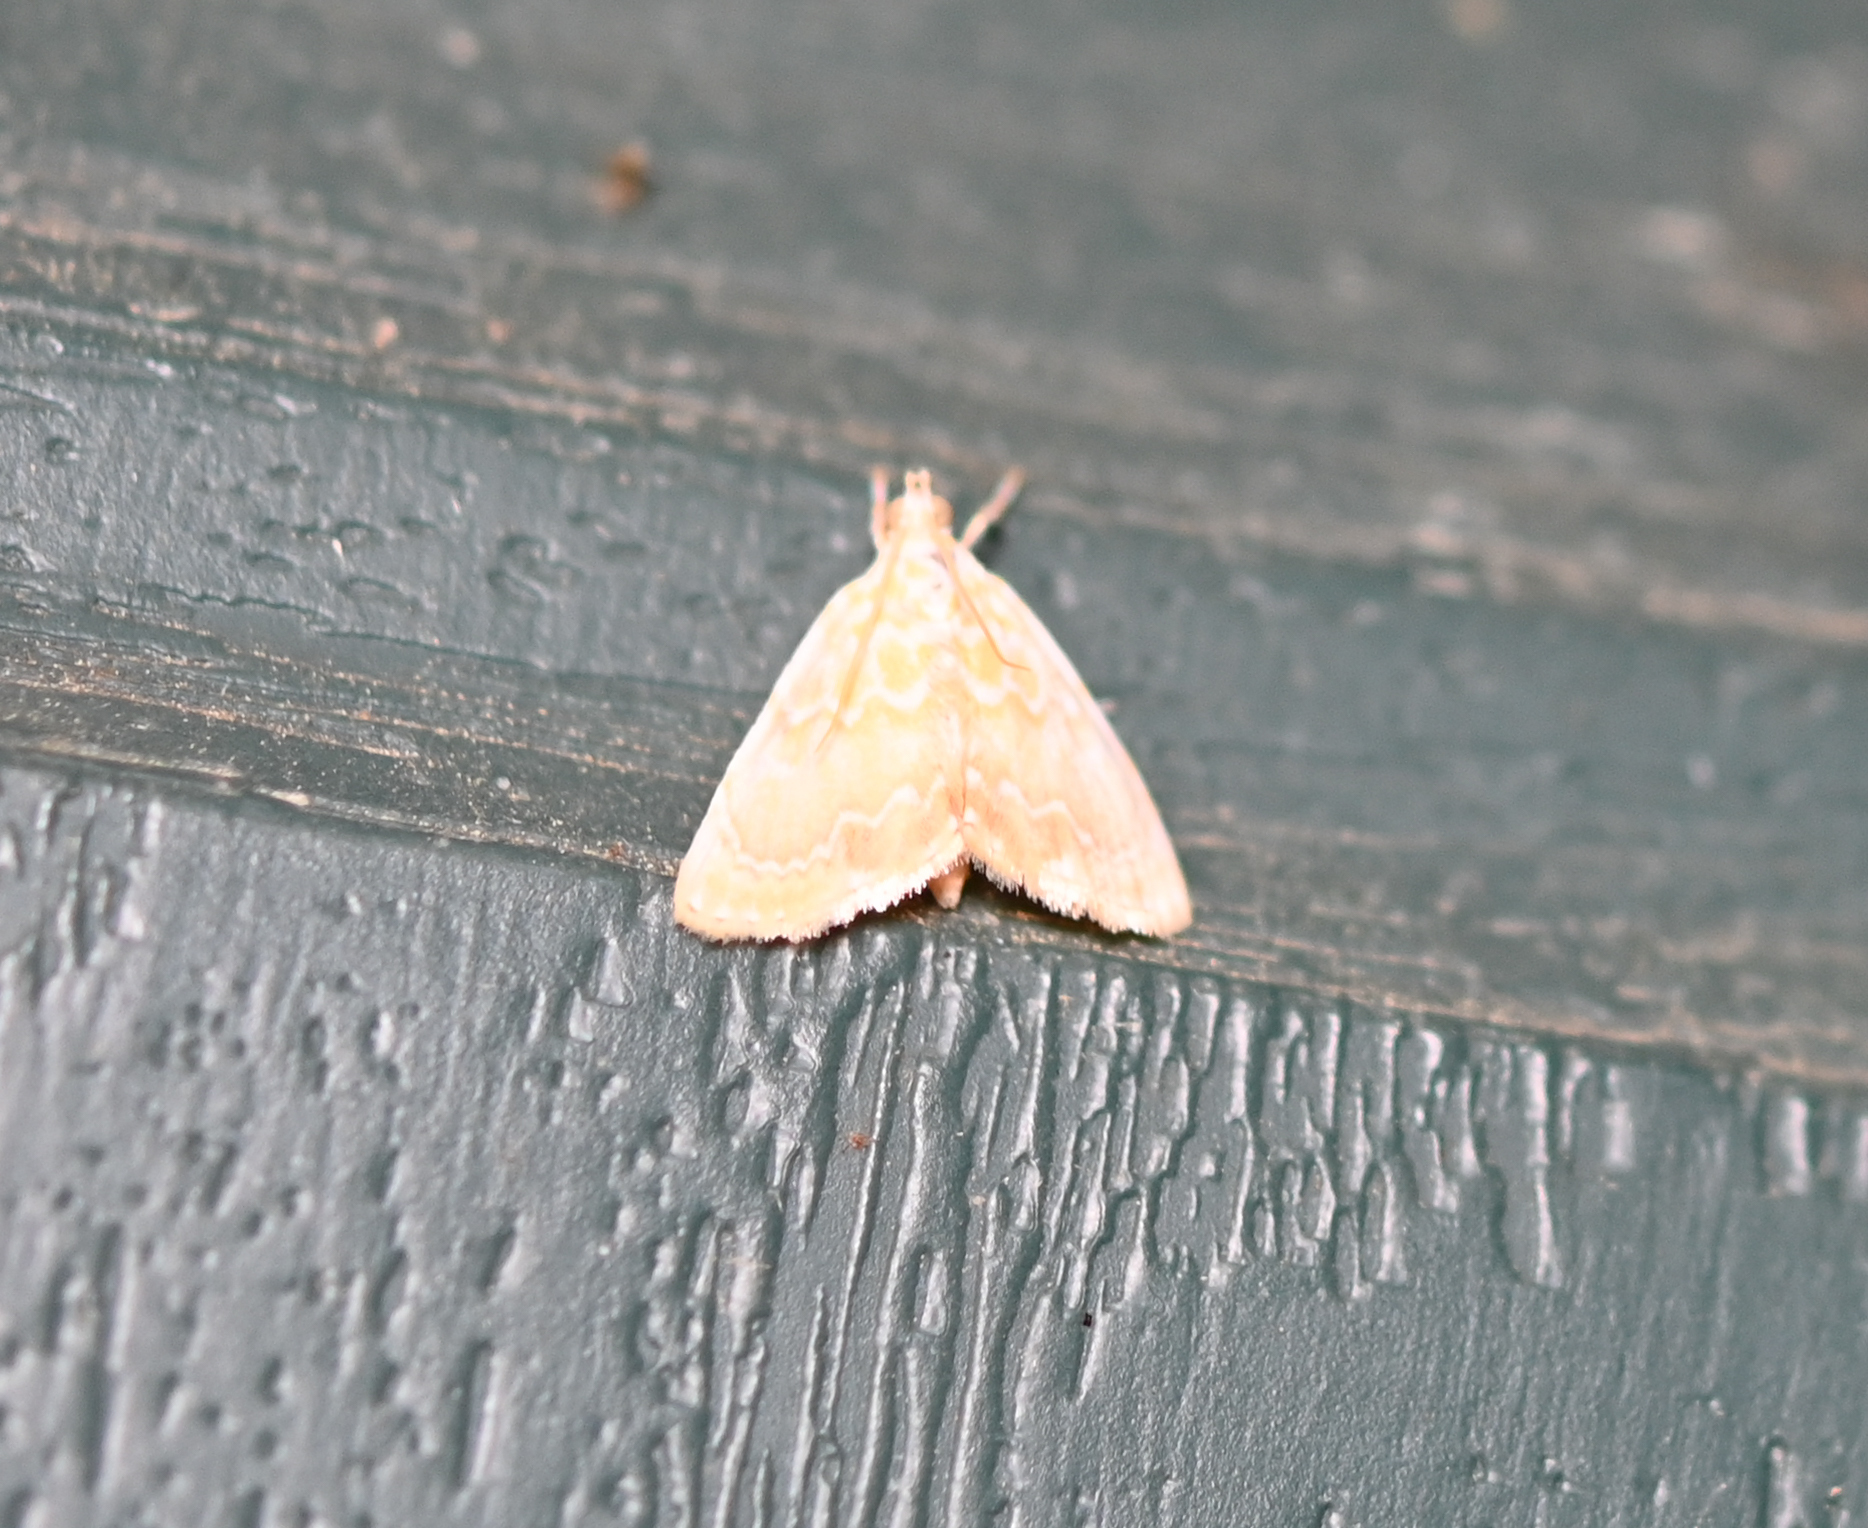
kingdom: Animalia
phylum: Arthropoda
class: Insecta
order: Lepidoptera
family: Crambidae
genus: Glaphyria
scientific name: Glaphyria glaphyralis
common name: Common glaphyria moth
